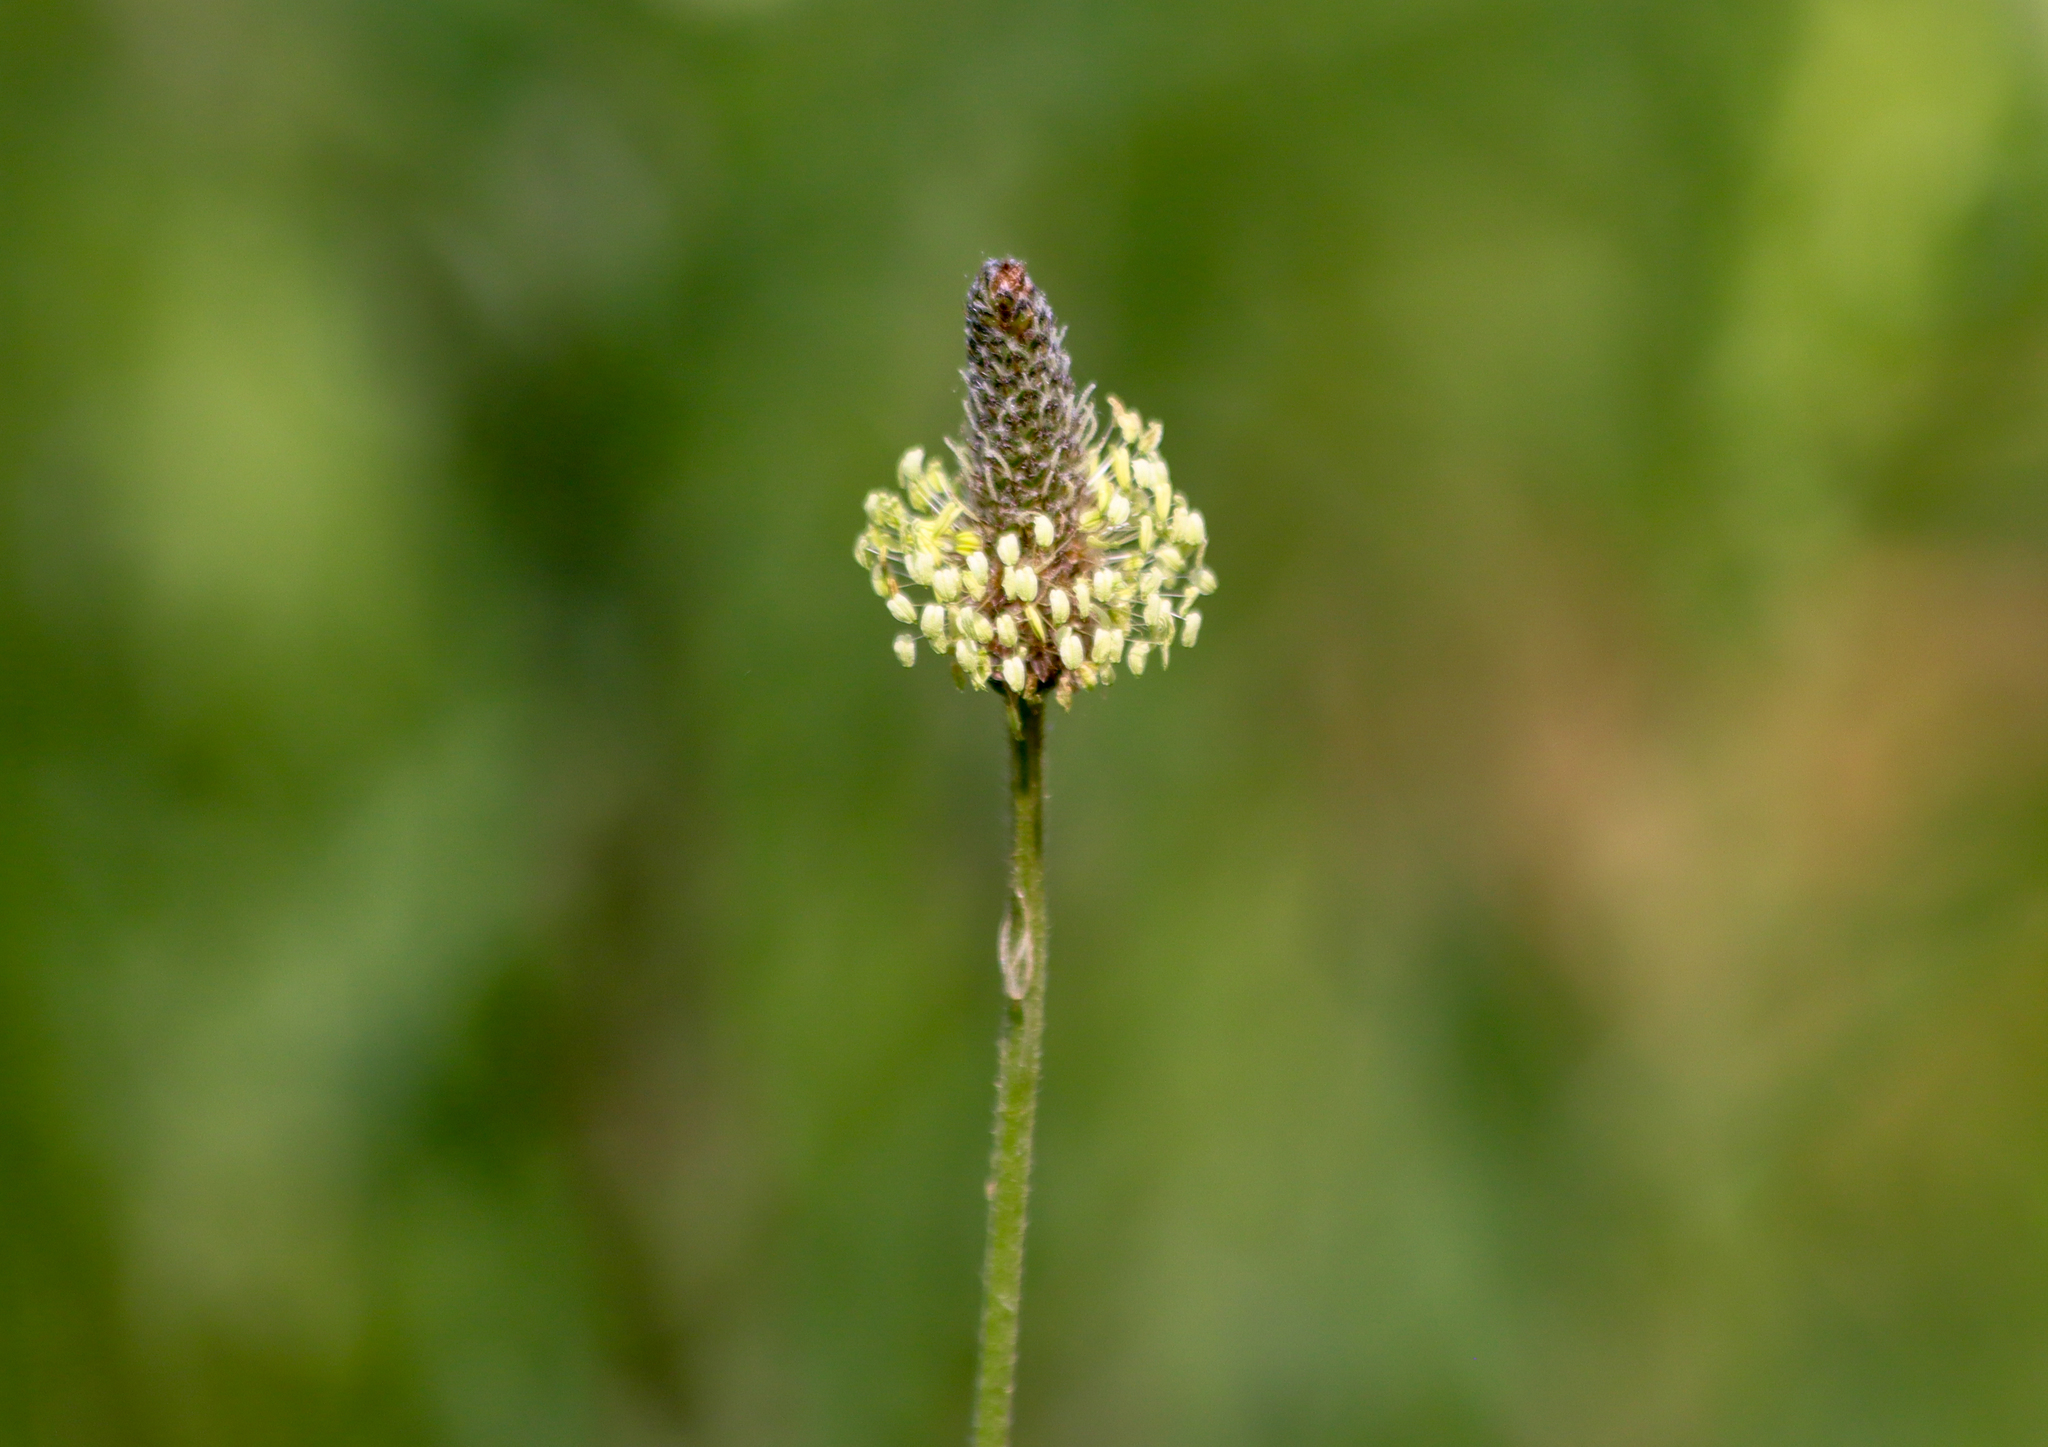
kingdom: Plantae
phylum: Tracheophyta
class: Magnoliopsida
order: Lamiales
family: Plantaginaceae
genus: Plantago
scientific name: Plantago lanceolata
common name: Ribwort plantain
